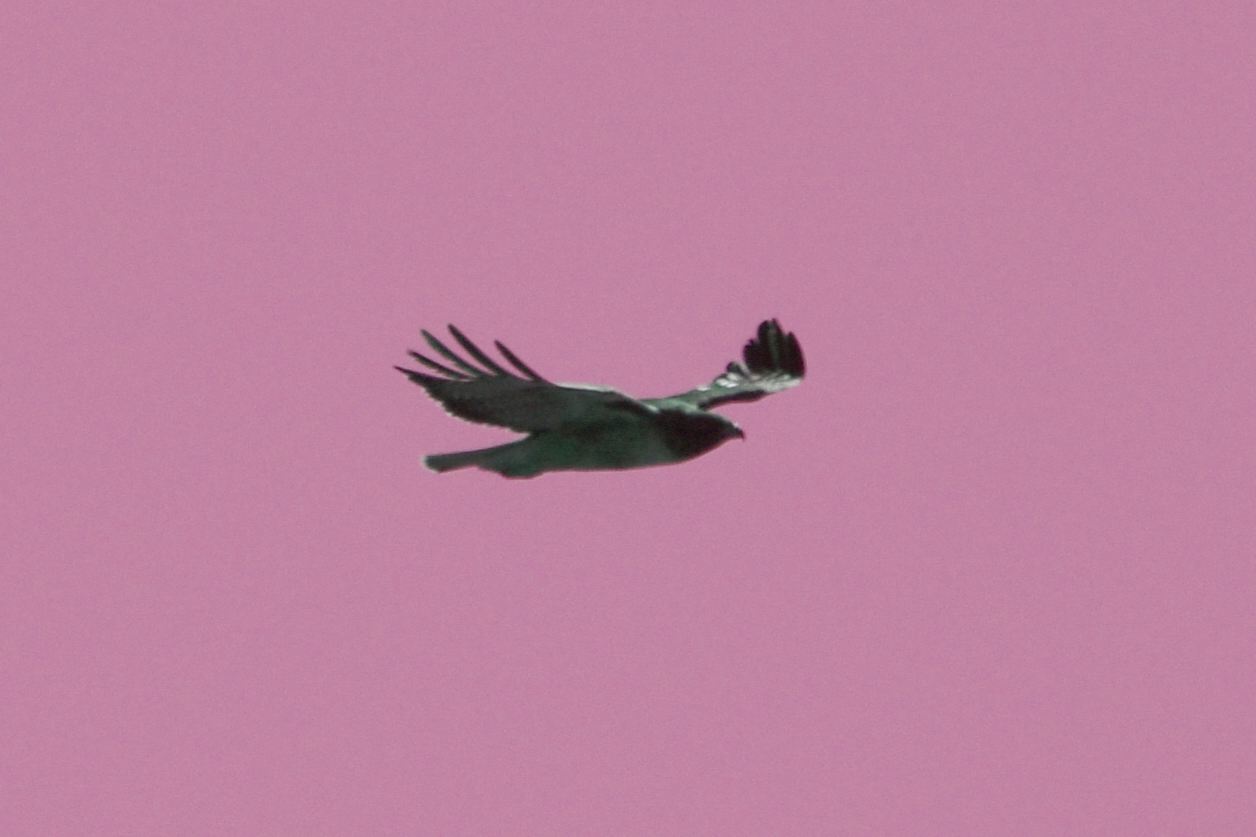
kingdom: Animalia
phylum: Chordata
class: Aves
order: Accipitriformes
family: Accipitridae
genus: Buteo
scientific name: Buteo jamaicensis
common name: Red-tailed hawk
